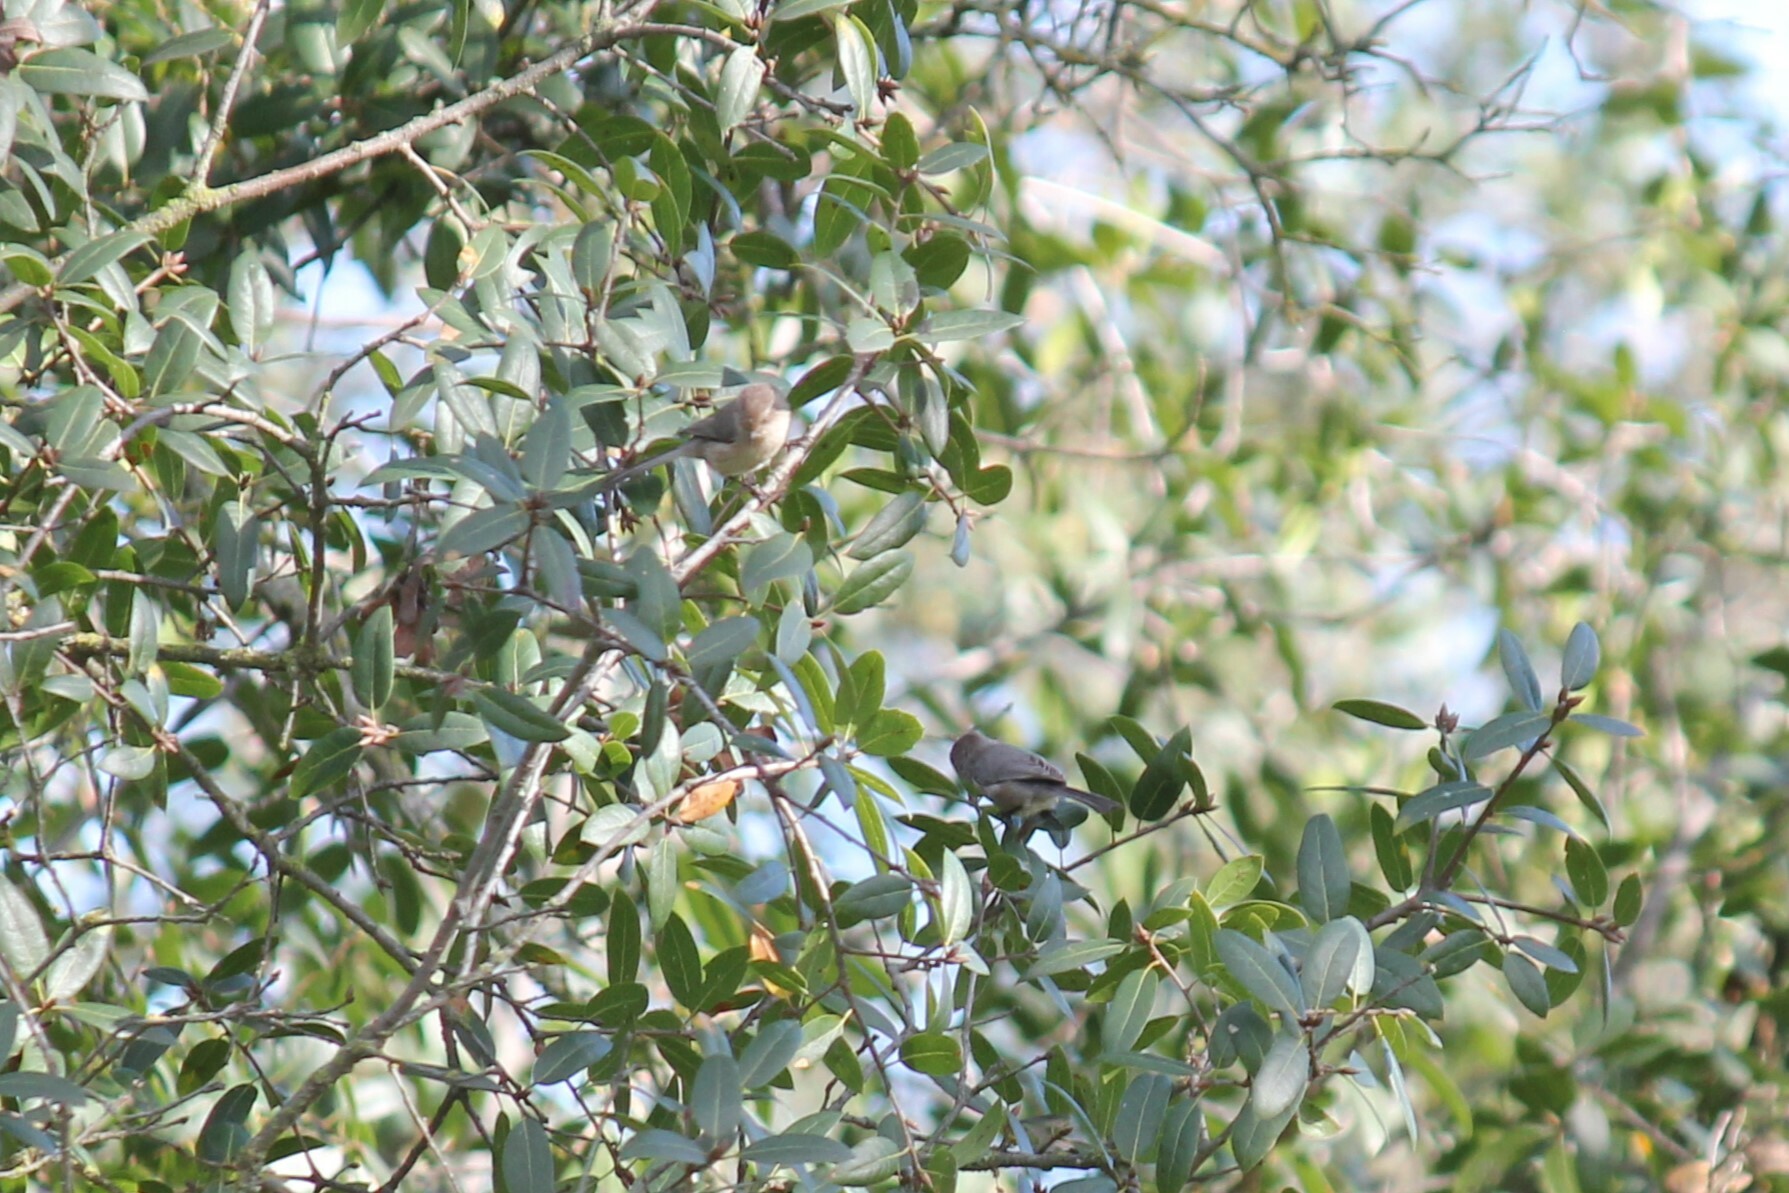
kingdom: Animalia
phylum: Chordata
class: Aves
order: Passeriformes
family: Aegithalidae
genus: Psaltriparus
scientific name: Psaltriparus minimus
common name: American bushtit
